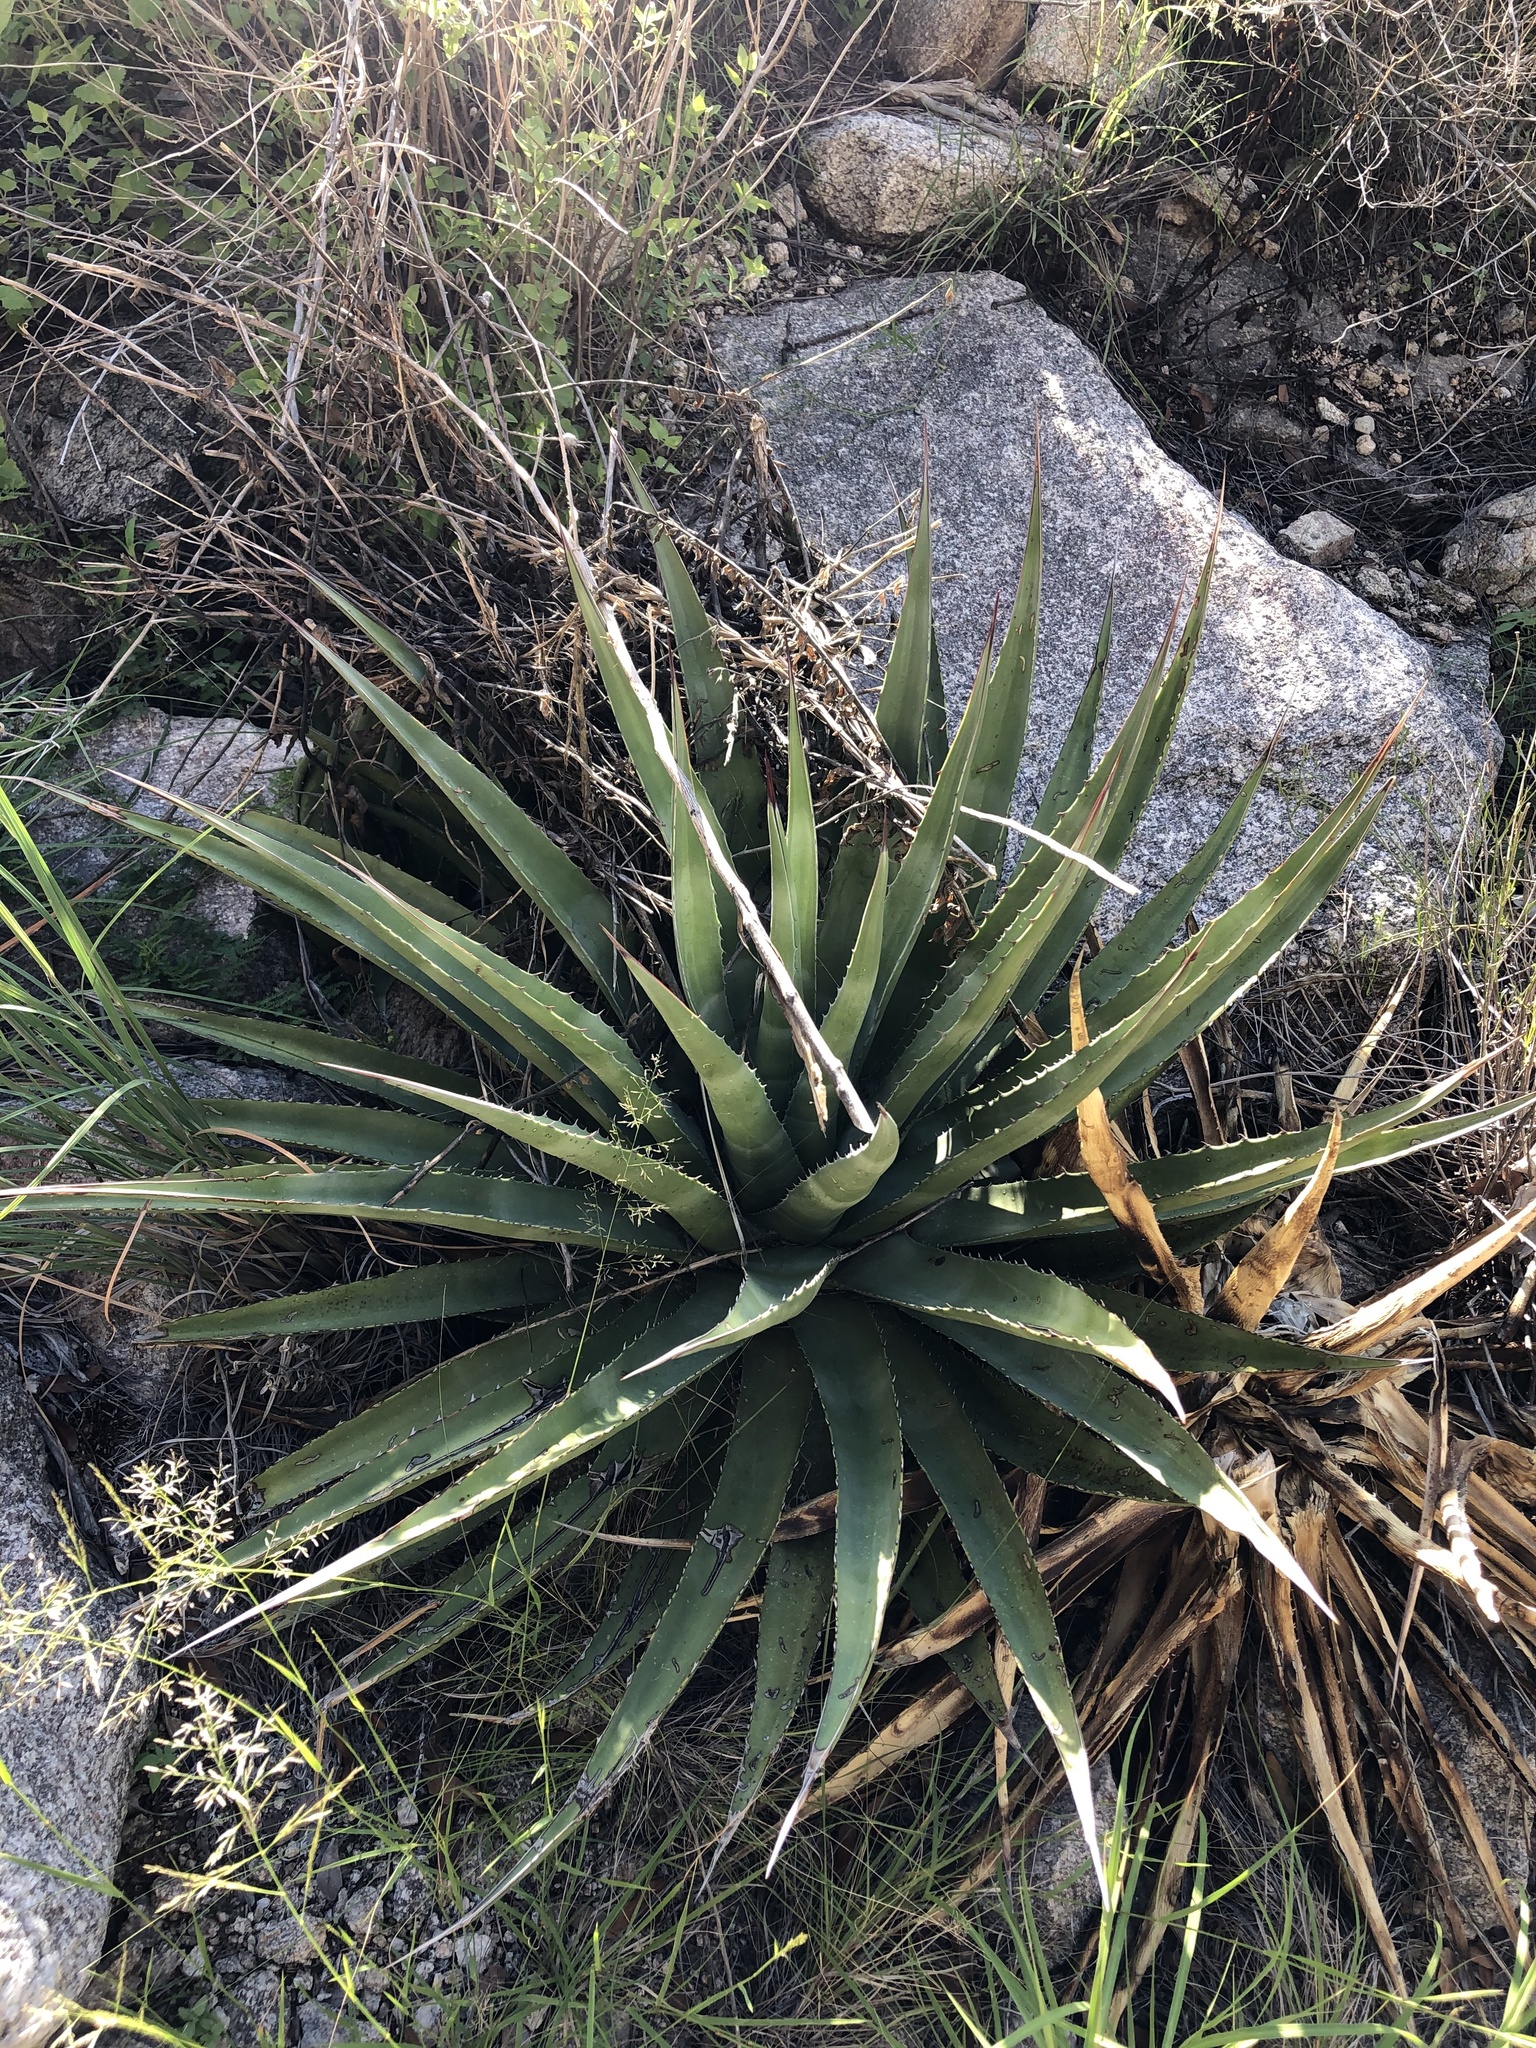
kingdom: Plantae
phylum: Tracheophyta
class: Liliopsida
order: Asparagales
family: Asparagaceae
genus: Agave
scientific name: Agave palmeri
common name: Palmer agave
